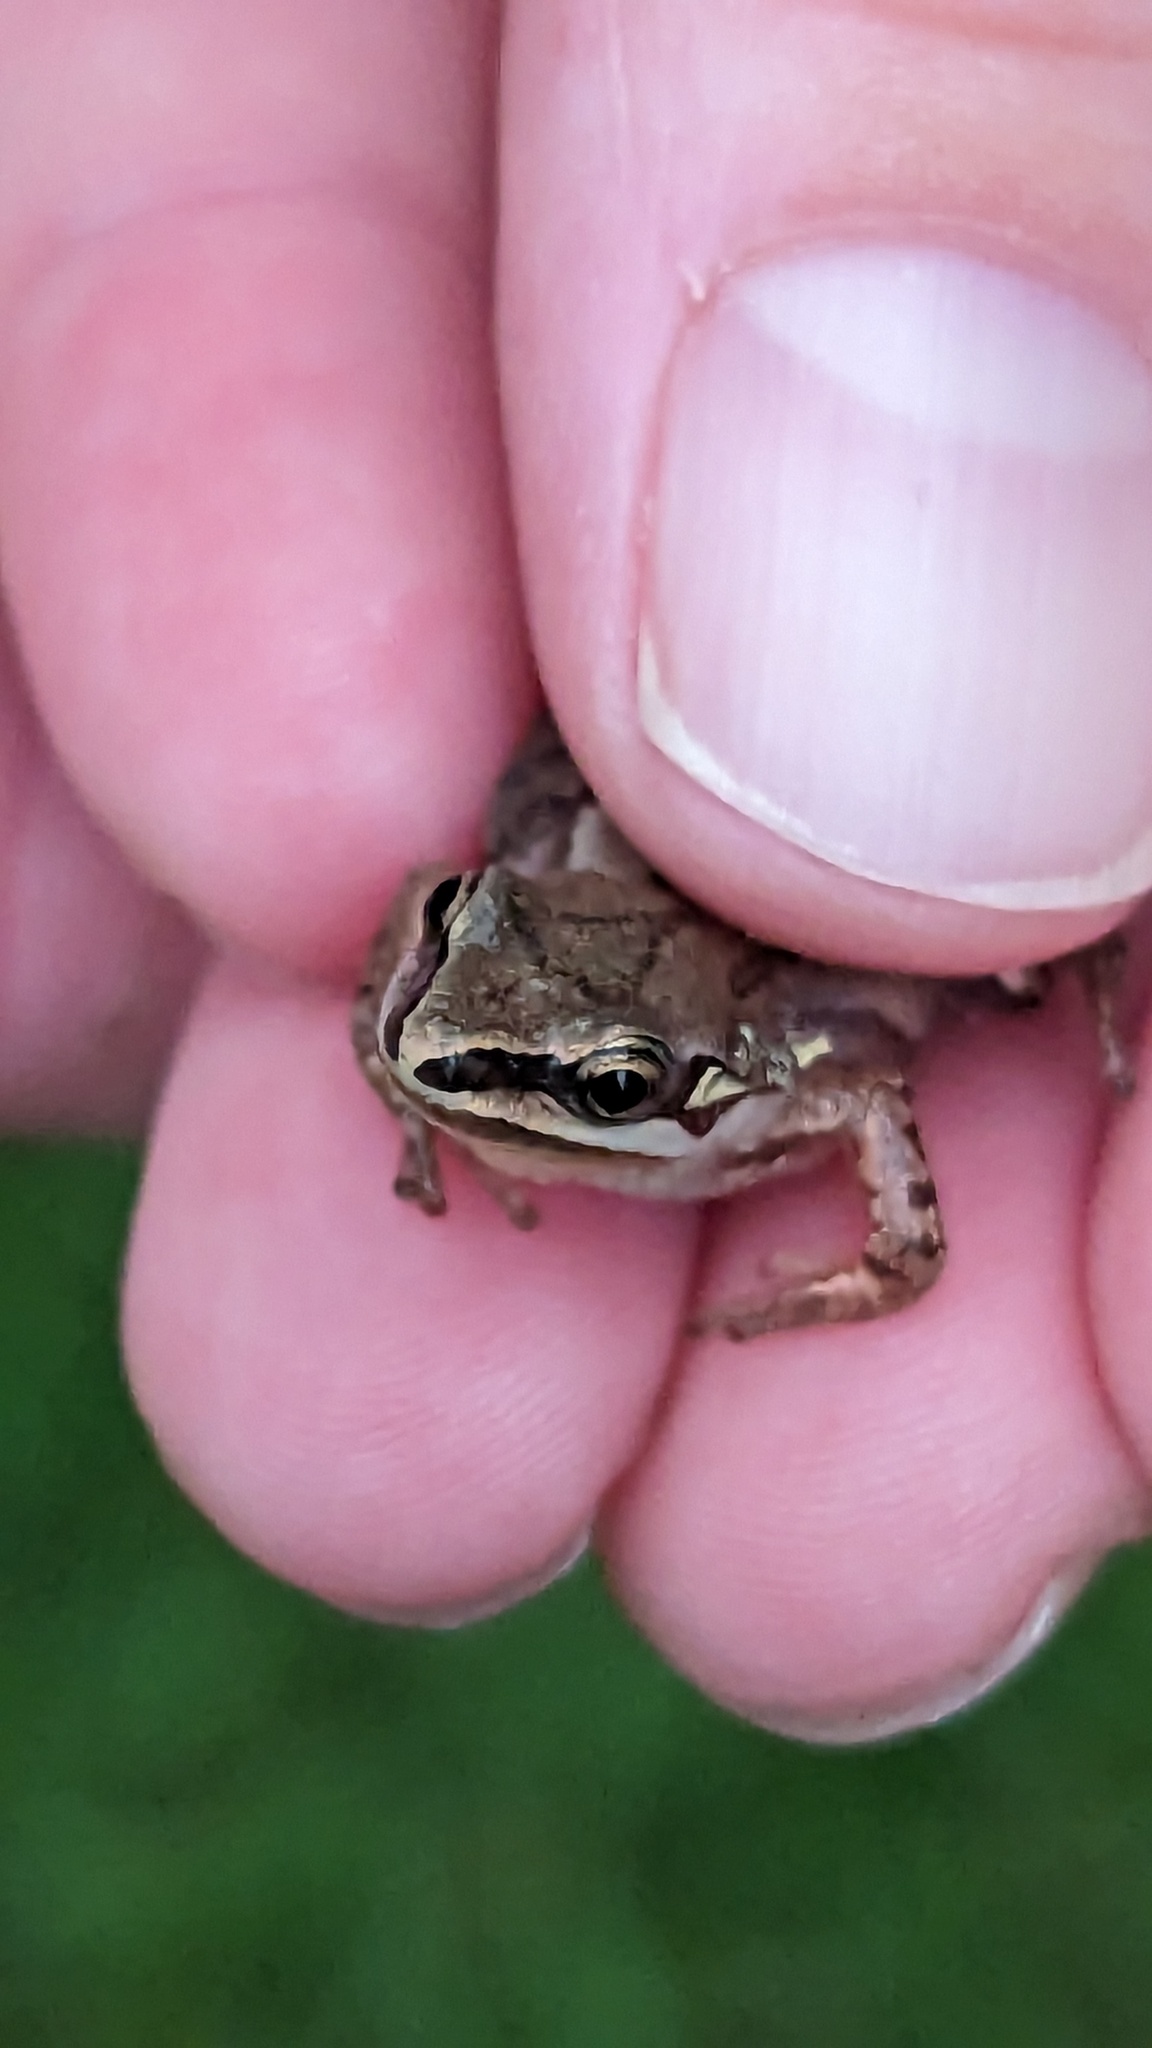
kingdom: Animalia
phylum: Chordata
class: Amphibia
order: Anura
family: Hylidae
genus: Pseudacris
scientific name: Pseudacris triseriata
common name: Western chorus frog
